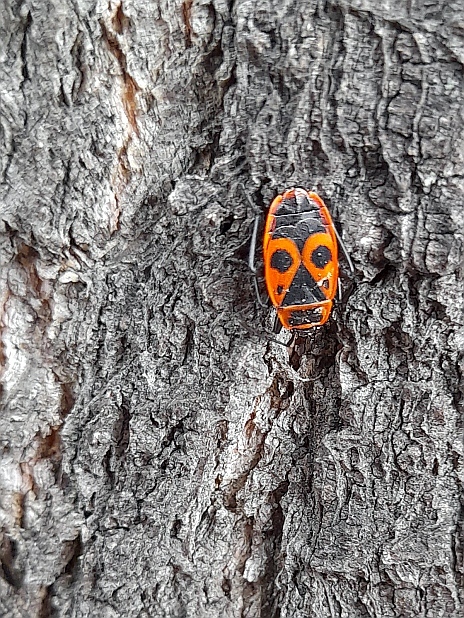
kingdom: Animalia
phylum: Arthropoda
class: Insecta
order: Hemiptera
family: Pyrrhocoridae
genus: Pyrrhocoris
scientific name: Pyrrhocoris apterus
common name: Firebug
